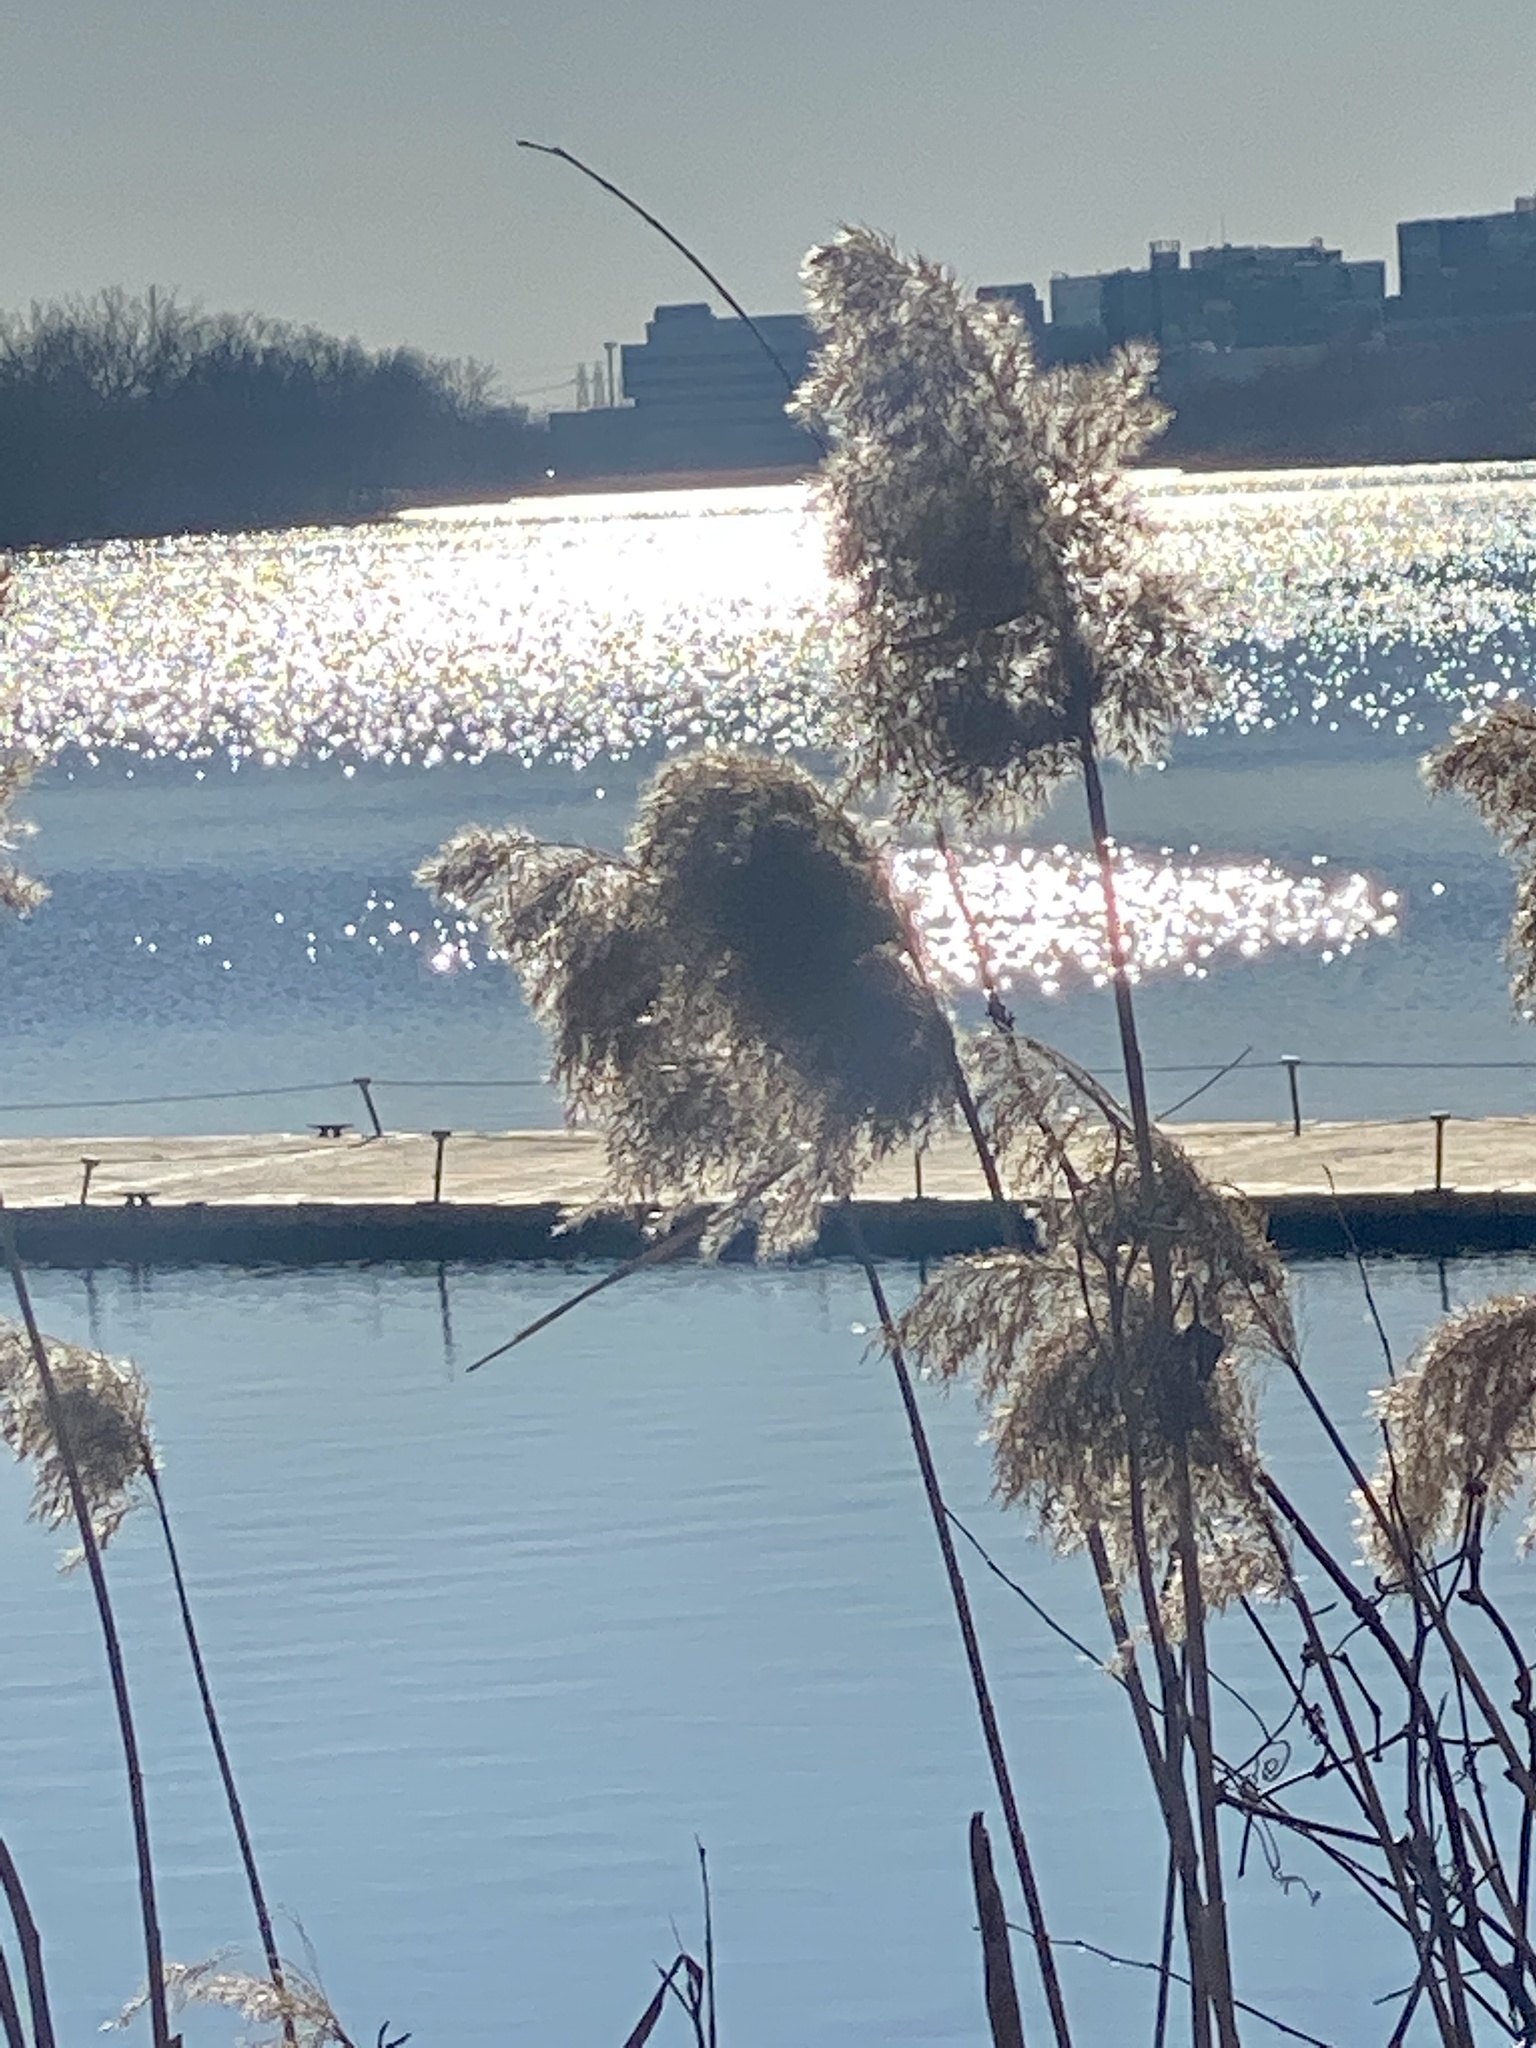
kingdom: Plantae
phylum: Tracheophyta
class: Liliopsida
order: Poales
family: Poaceae
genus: Phragmites
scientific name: Phragmites australis
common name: Common reed
